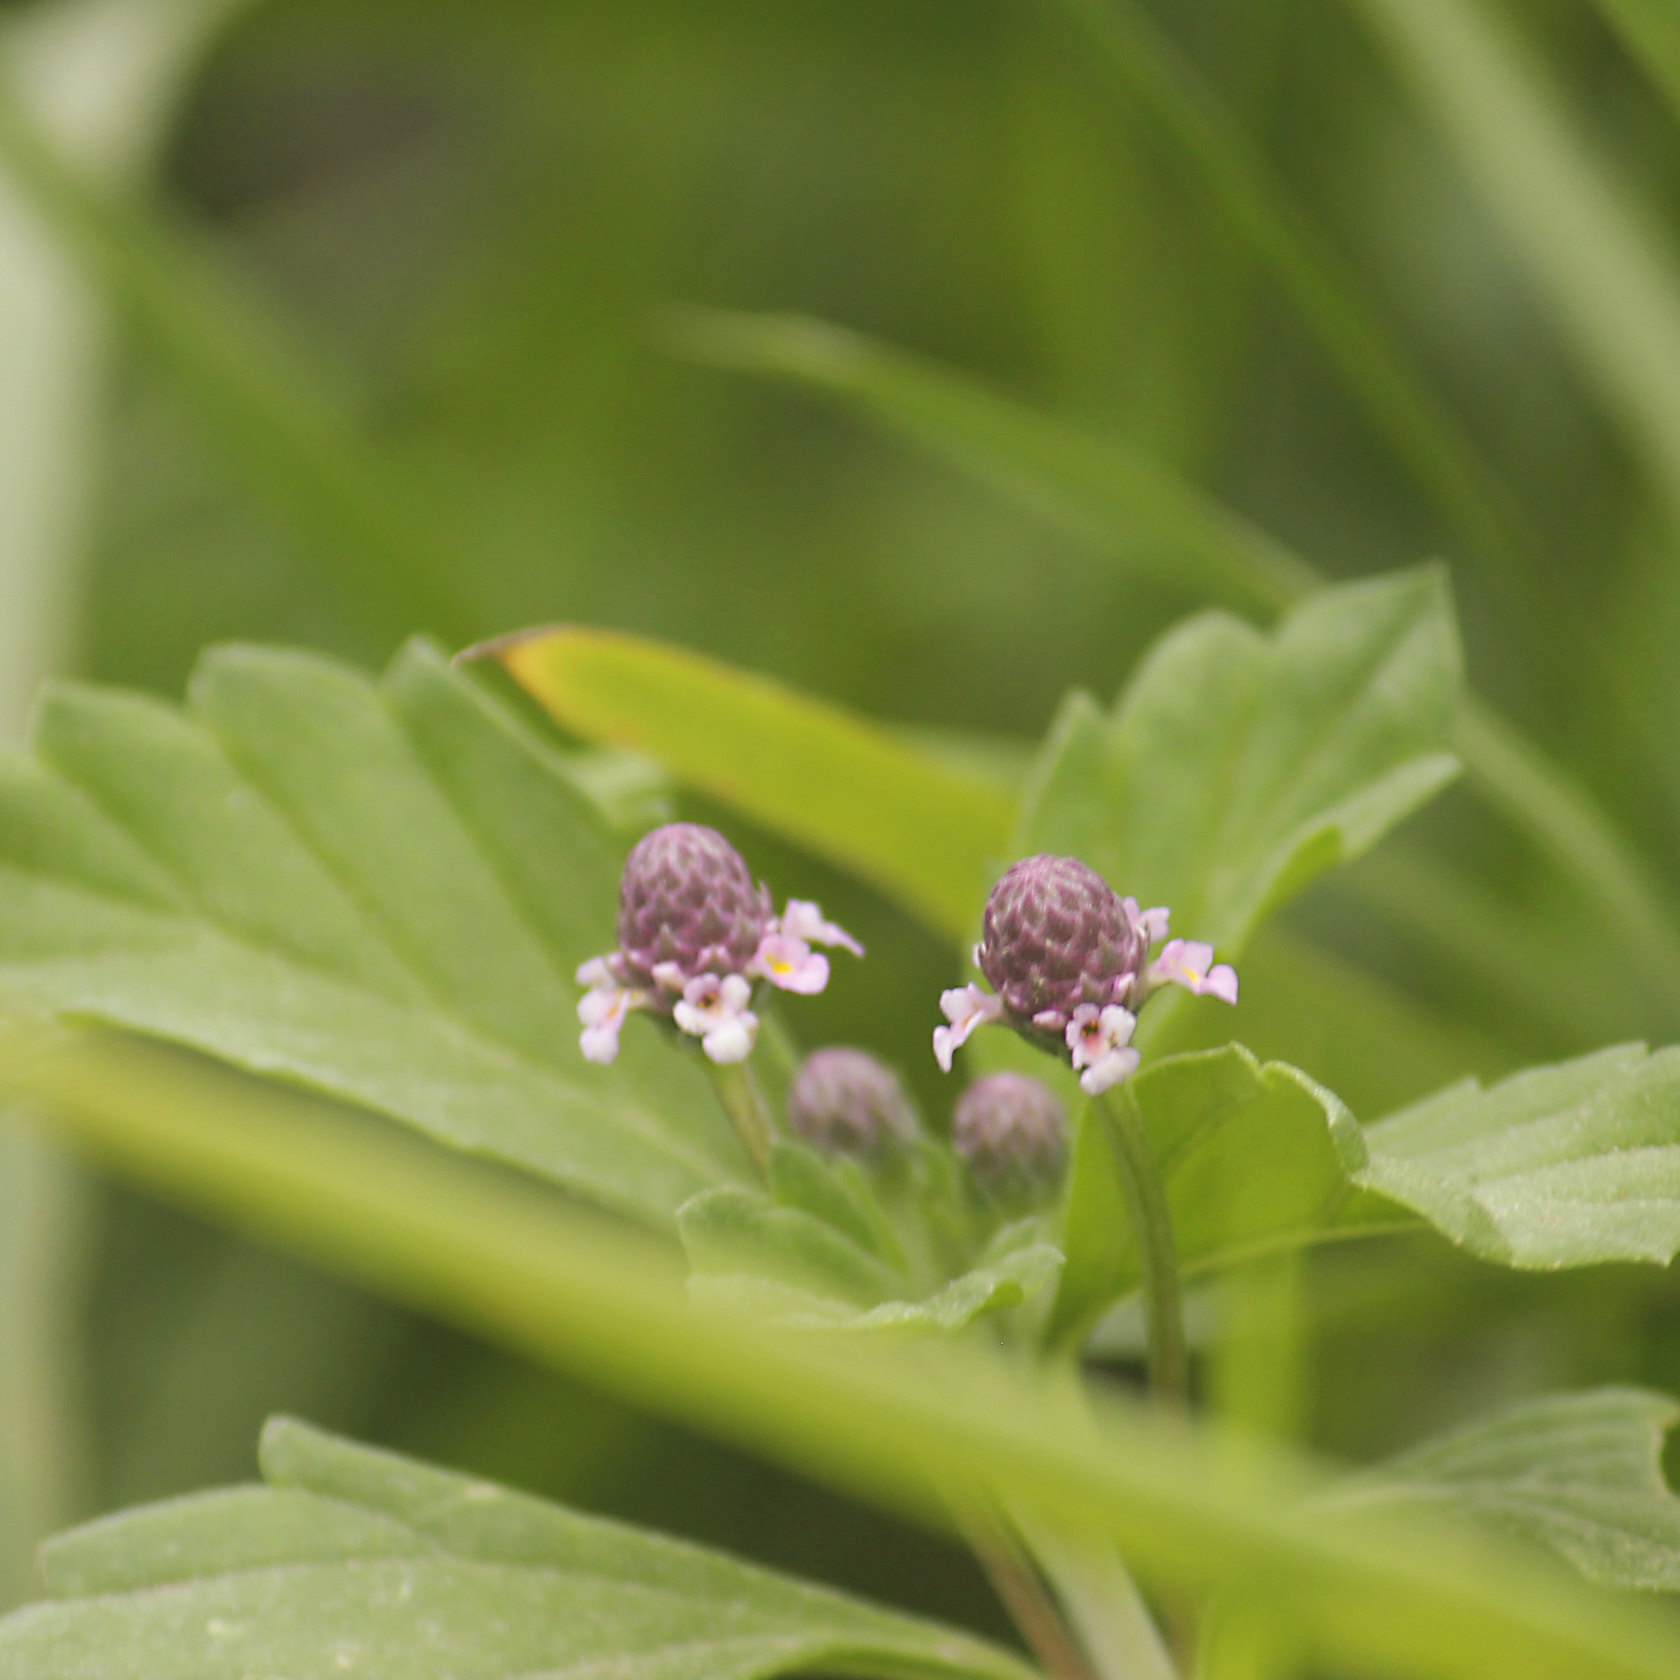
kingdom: Plantae
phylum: Tracheophyta
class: Magnoliopsida
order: Lamiales
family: Verbenaceae
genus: Phyla
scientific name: Phyla nodiflora
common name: Frogfruit
